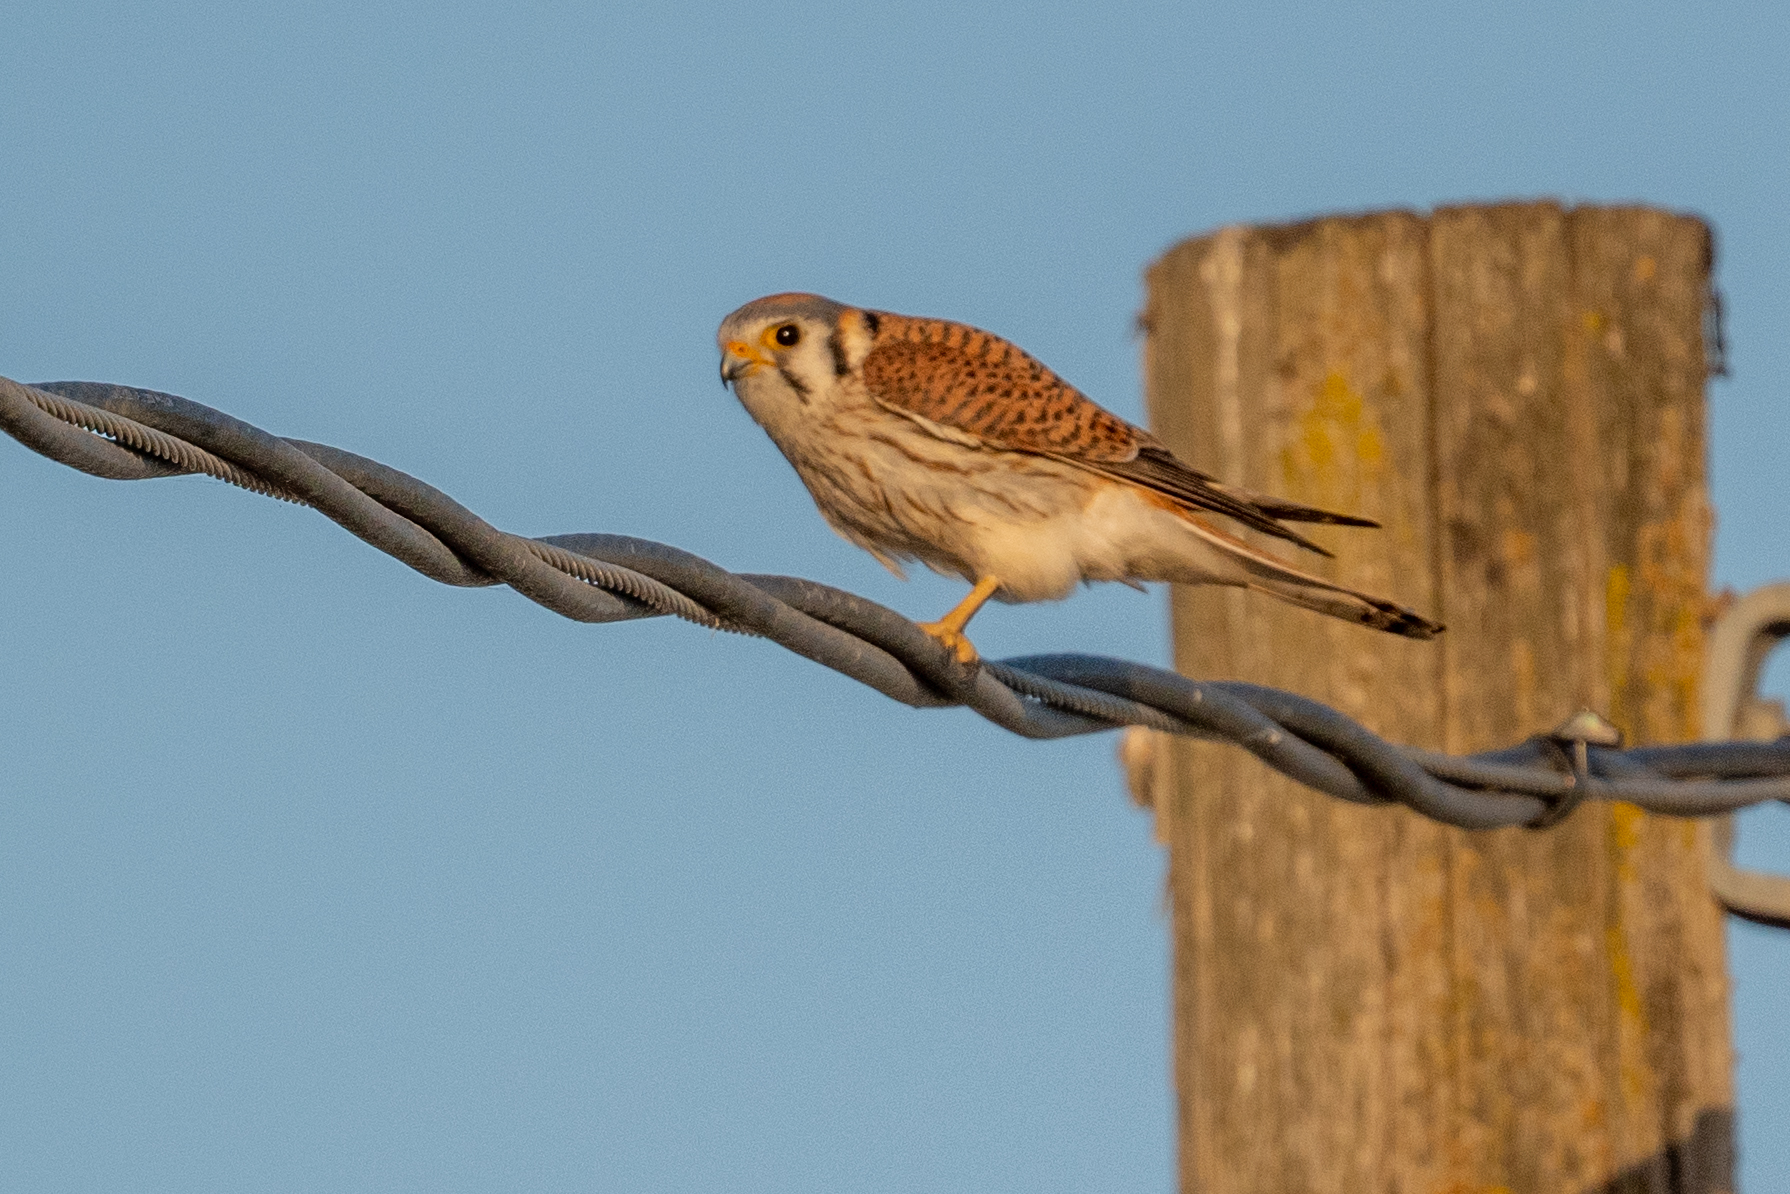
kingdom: Animalia
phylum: Chordata
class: Aves
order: Falconiformes
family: Falconidae
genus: Falco
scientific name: Falco sparverius
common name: American kestrel
